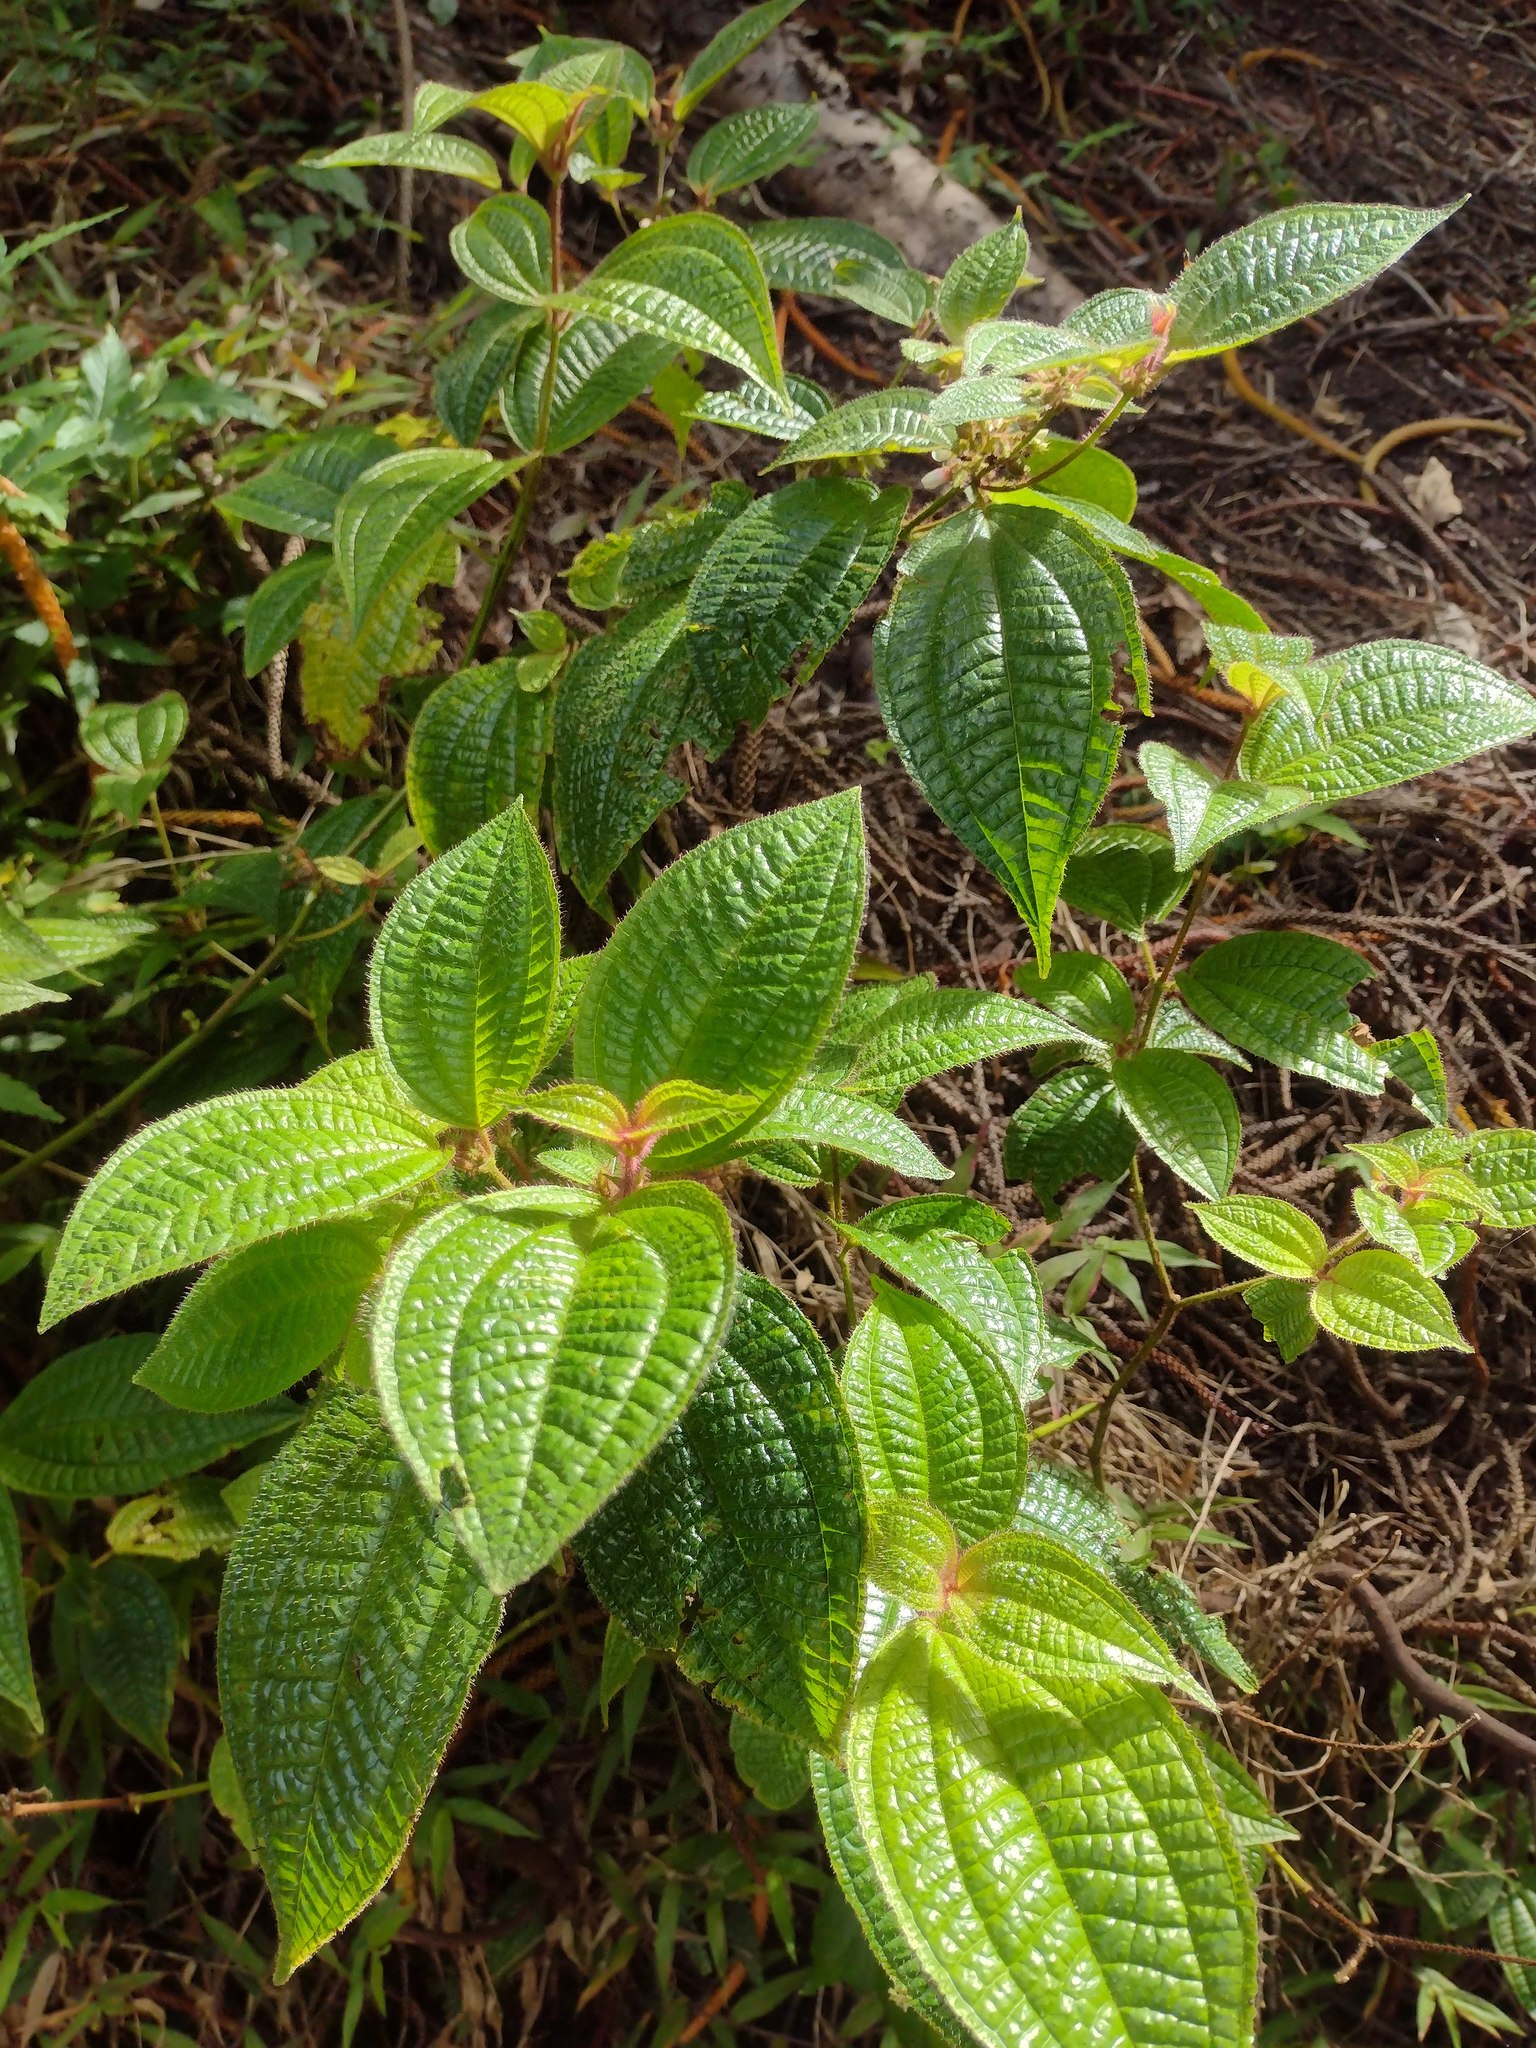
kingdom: Plantae
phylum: Tracheophyta
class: Magnoliopsida
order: Myrtales
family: Melastomataceae
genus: Miconia
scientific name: Miconia crenata
